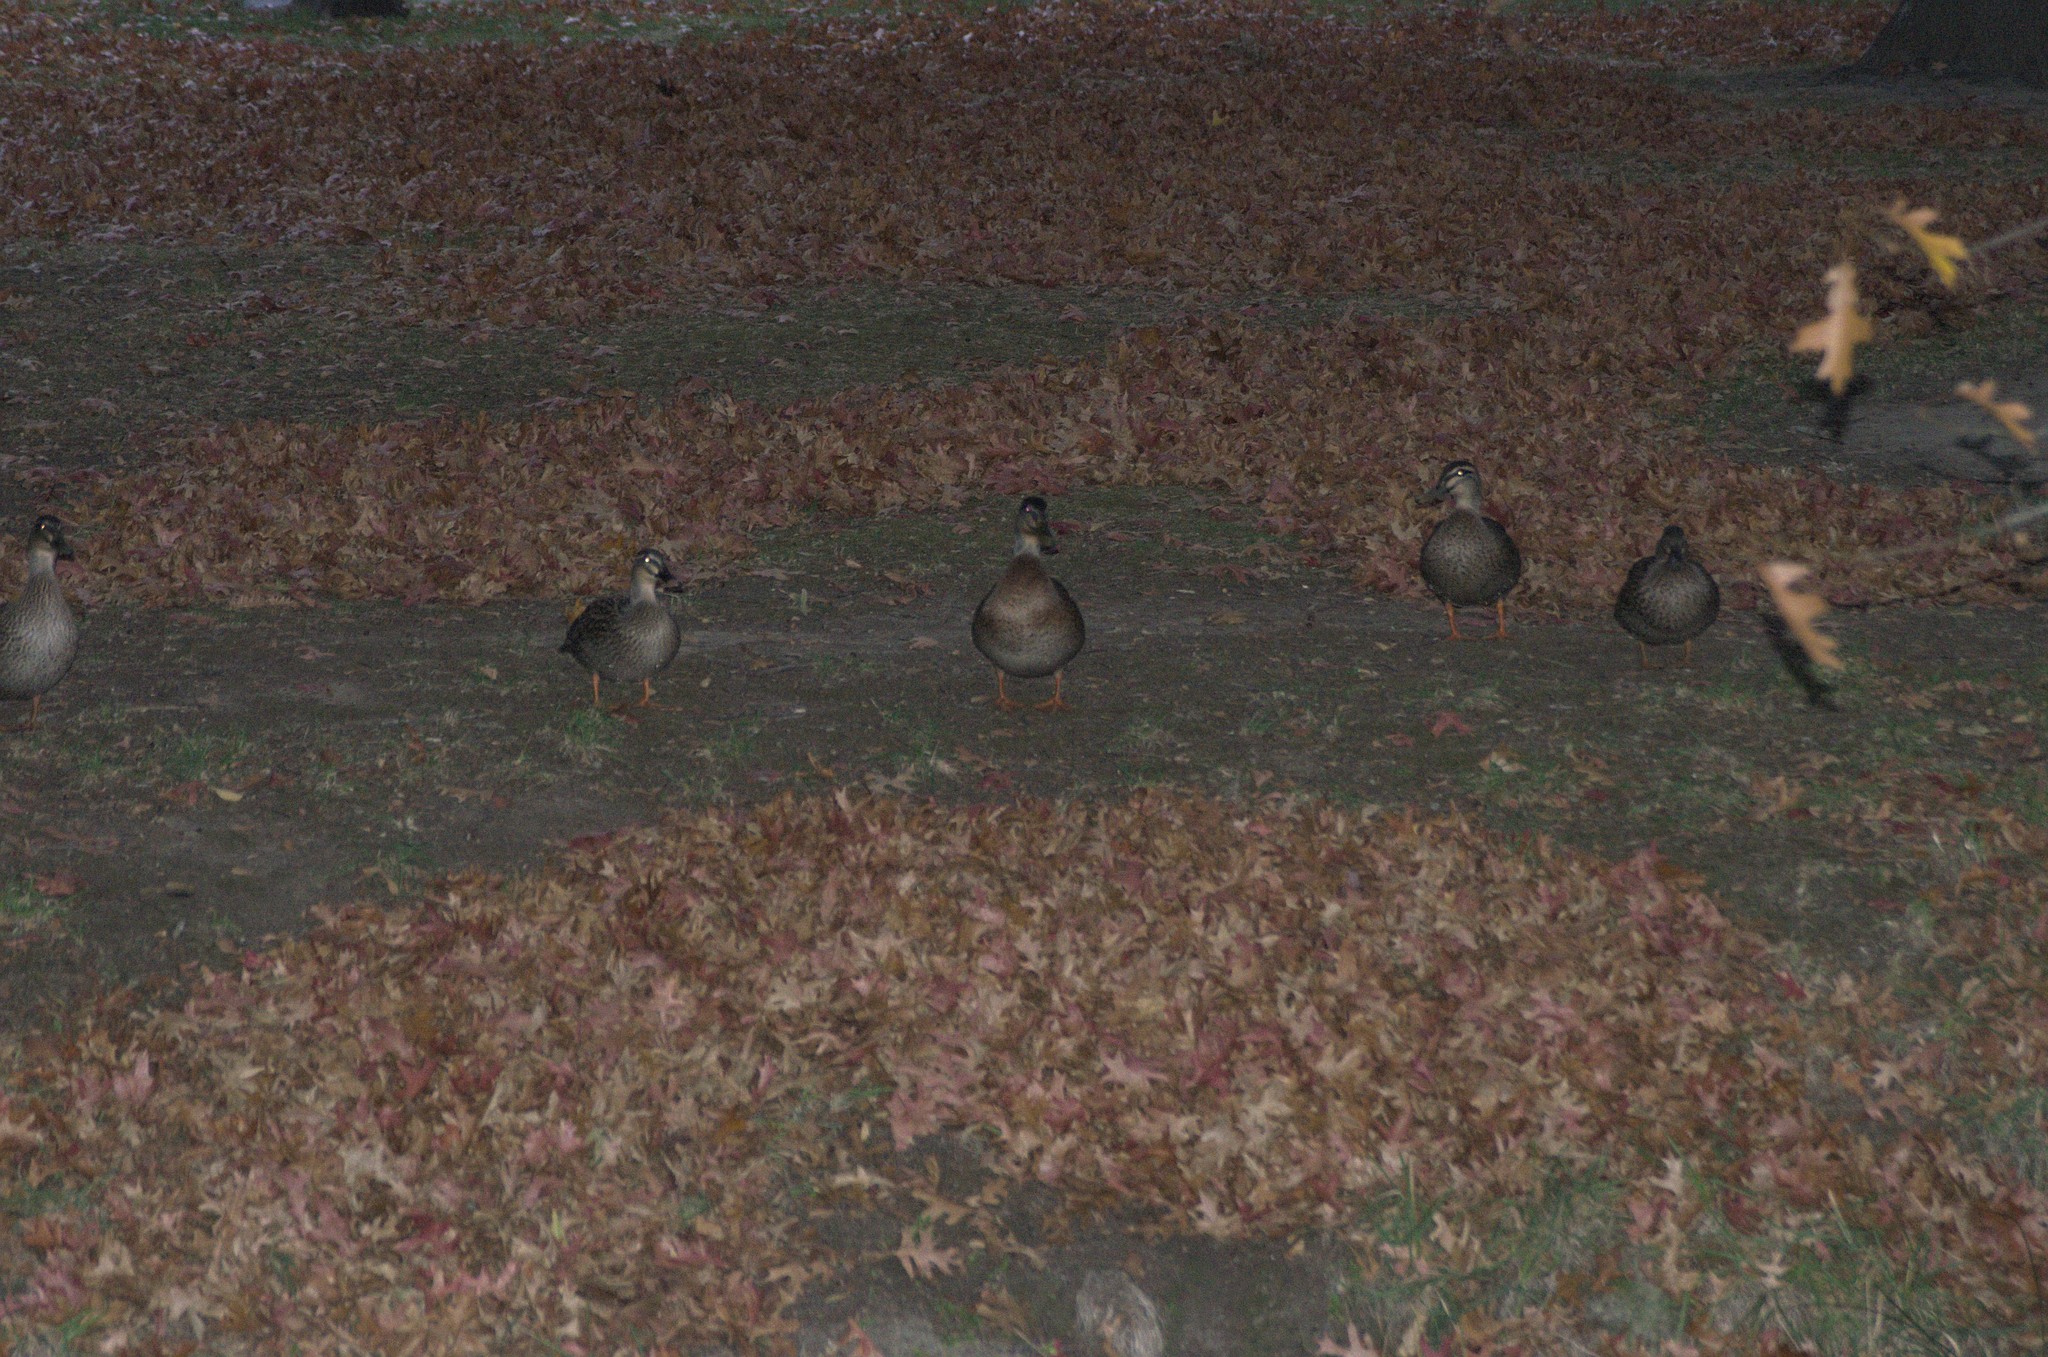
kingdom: Animalia
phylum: Chordata
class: Aves
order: Anseriformes
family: Anatidae
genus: Anas
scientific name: Anas
